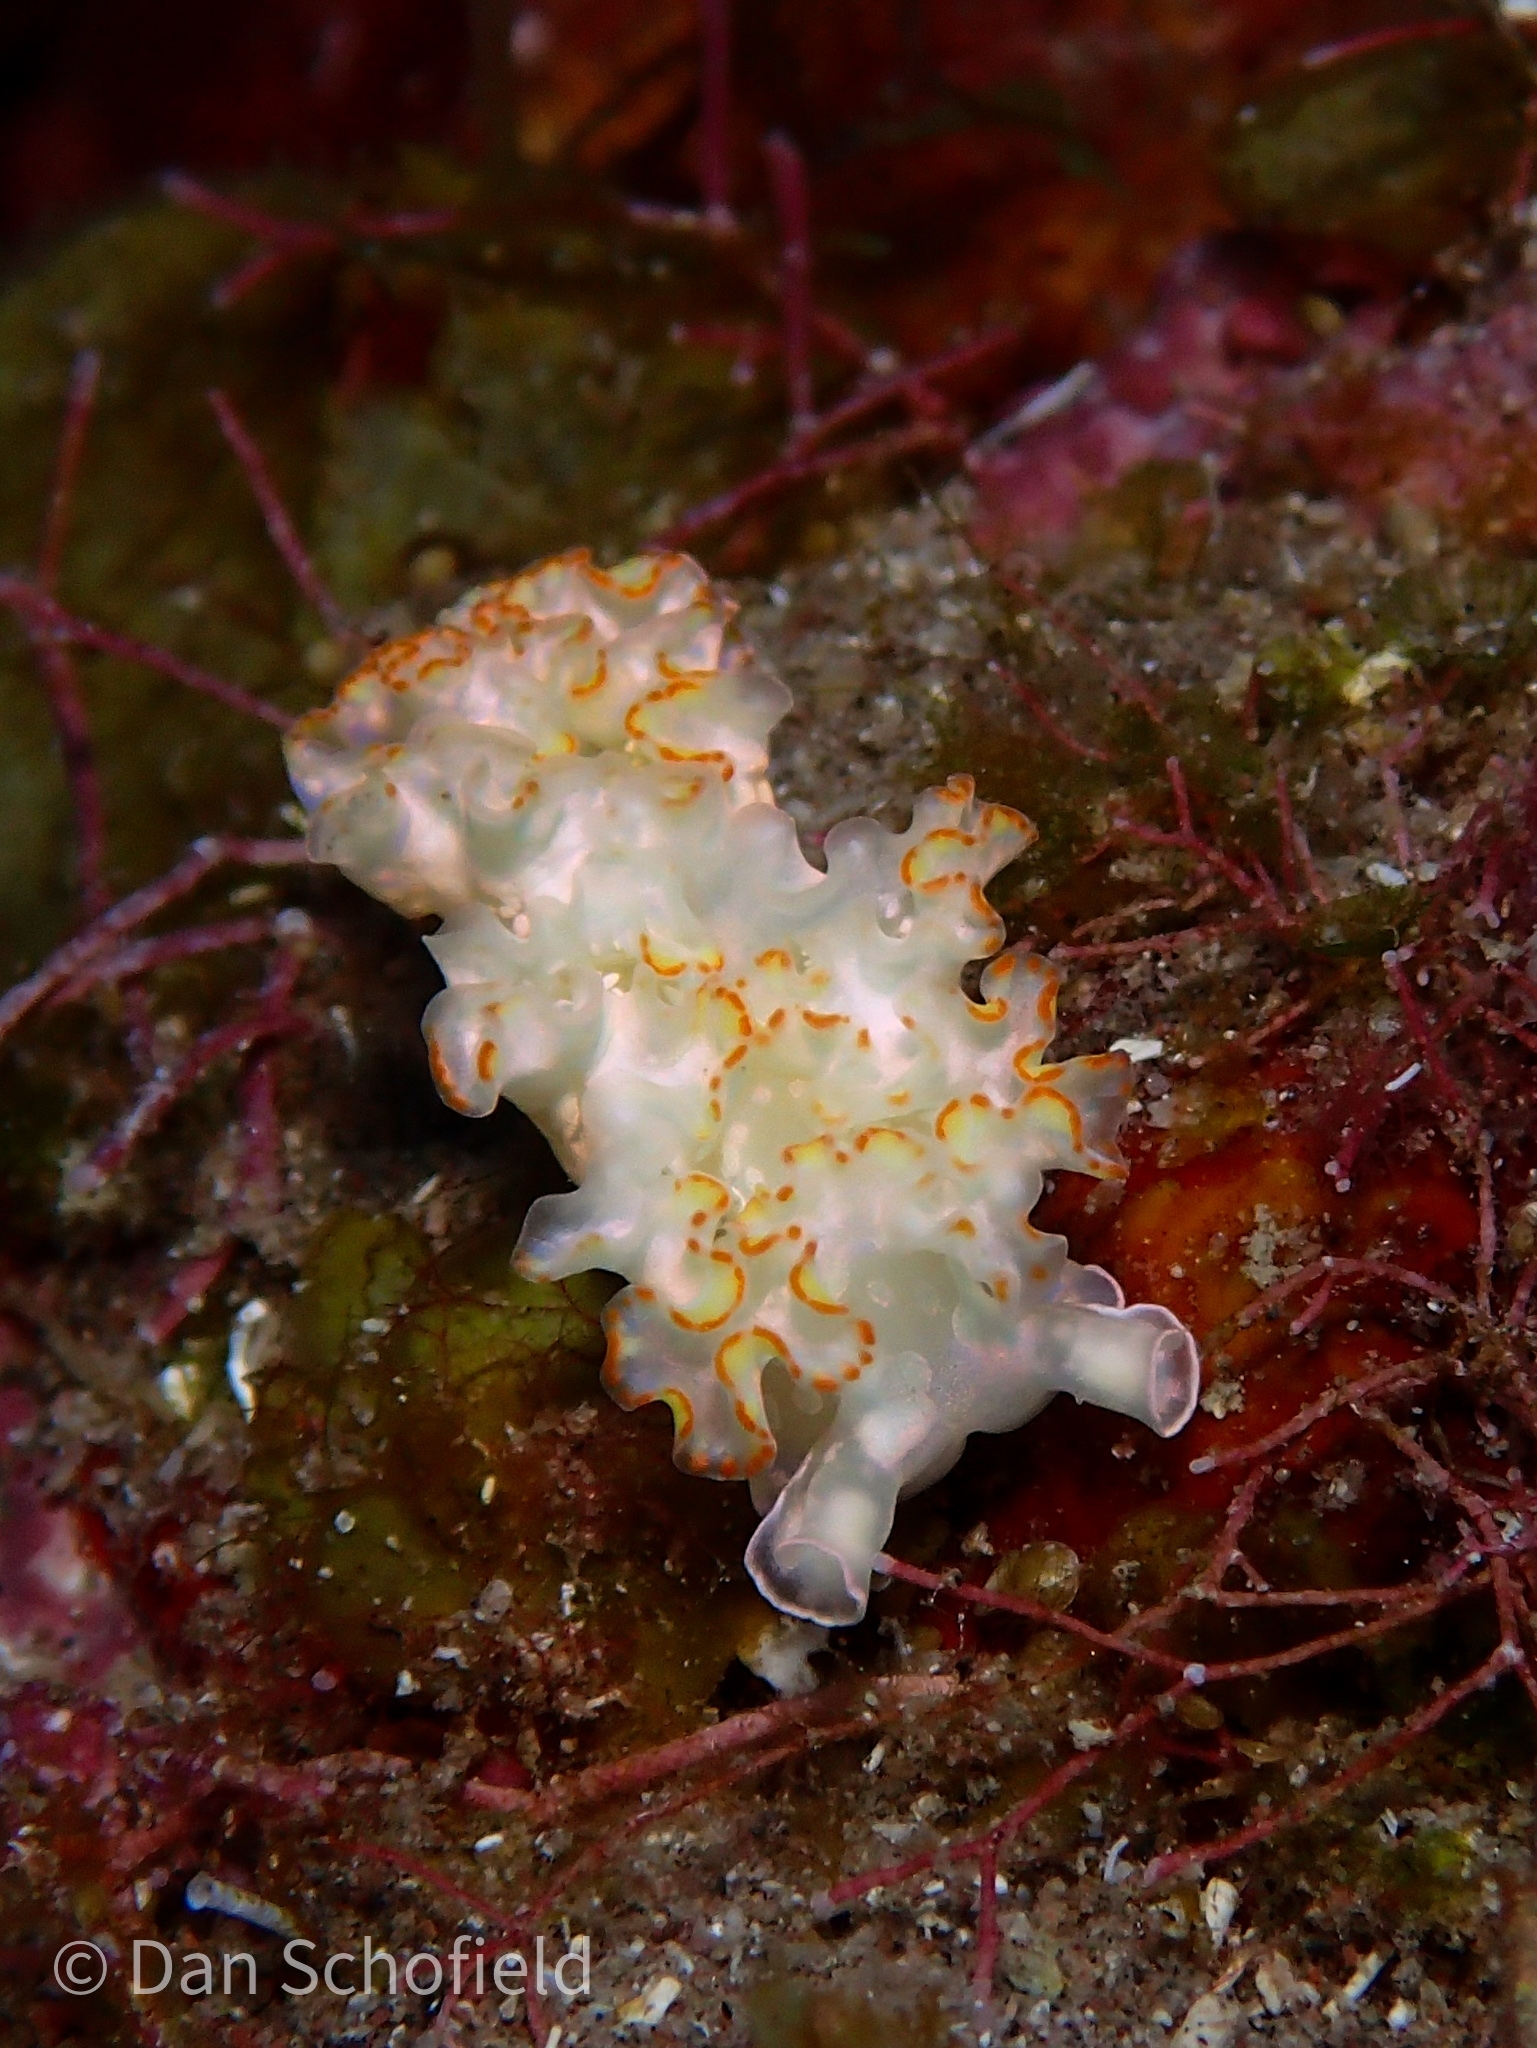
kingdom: Animalia
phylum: Mollusca
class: Gastropoda
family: Plakobranchidae
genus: Elysia
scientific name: Elysia crispata
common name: Lettuce slug
